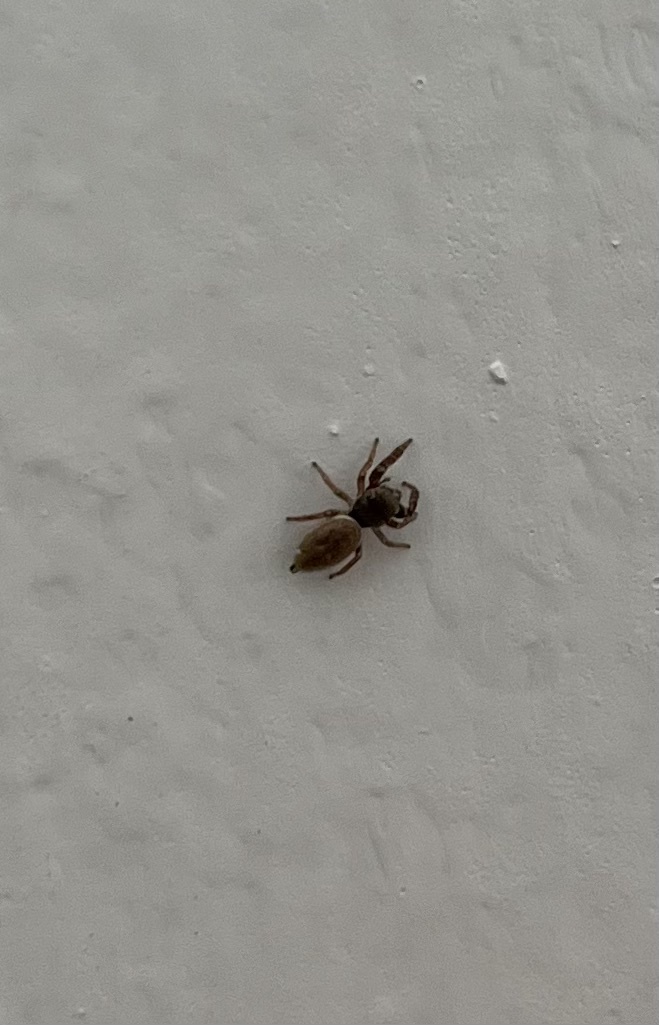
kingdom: Animalia
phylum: Arthropoda
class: Arachnida
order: Araneae
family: Salticidae
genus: Sassacus
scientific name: Sassacus vitis
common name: Jumping spiders
